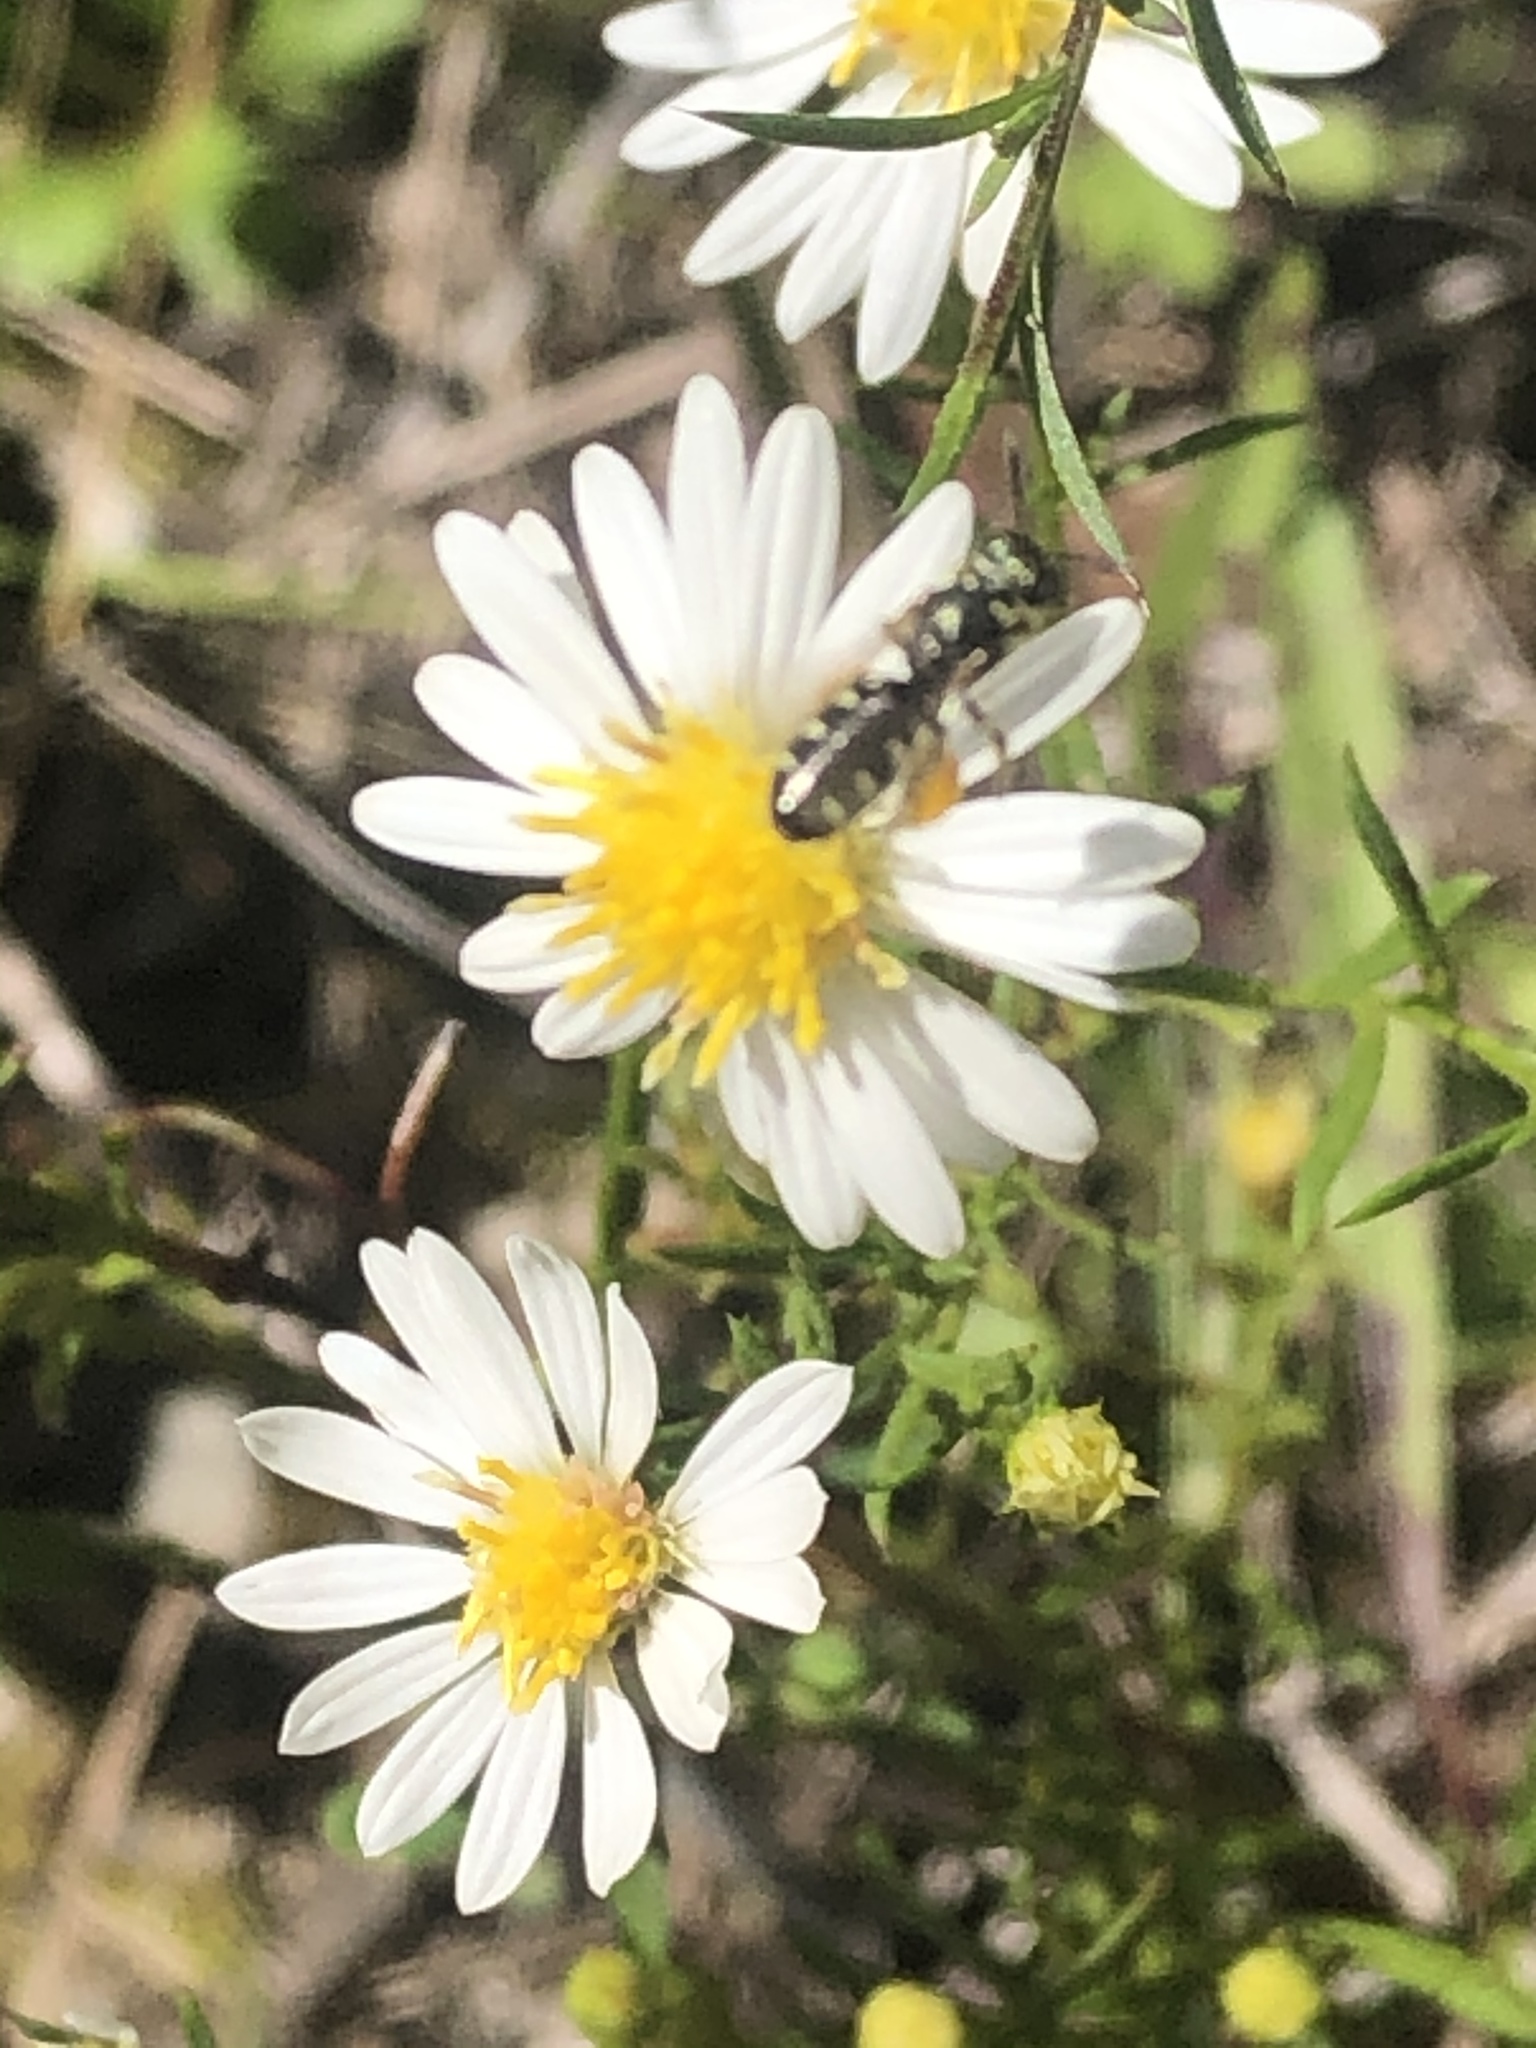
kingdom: Animalia
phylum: Arthropoda
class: Insecta
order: Hymenoptera
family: Andrenidae
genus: Perdita
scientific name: Perdita octomaculata
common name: Eight-spotted miner bee
